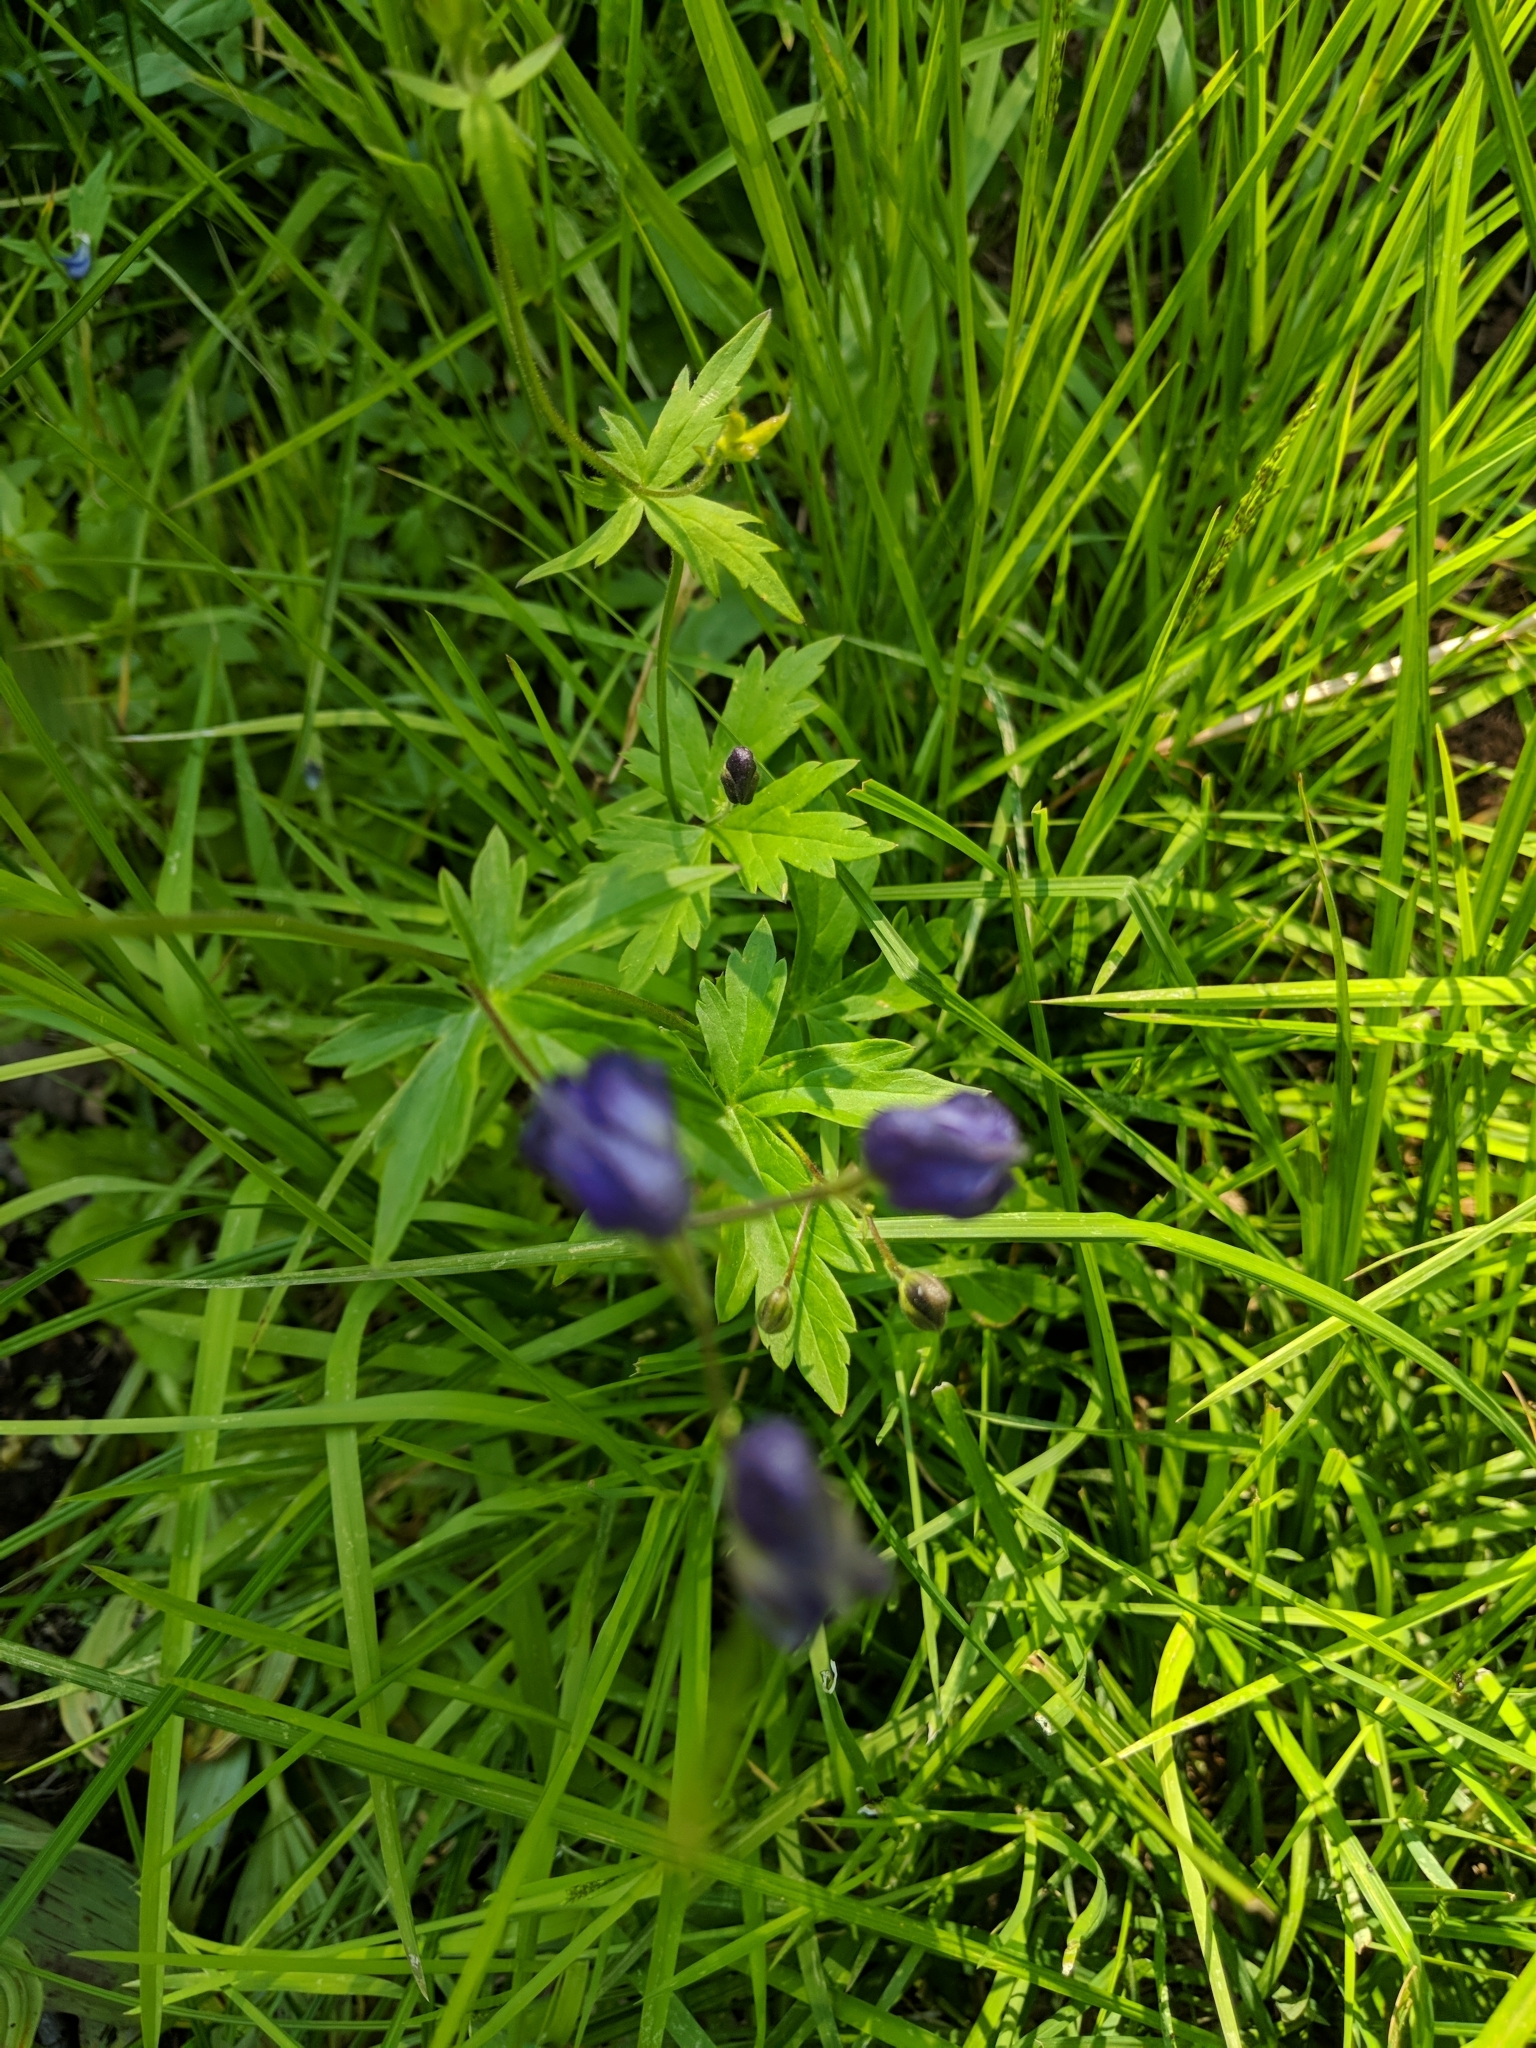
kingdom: Plantae
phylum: Tracheophyta
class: Magnoliopsida
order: Ranunculales
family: Ranunculaceae
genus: Aconitum
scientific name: Aconitum columbianum
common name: Columbia aconite
